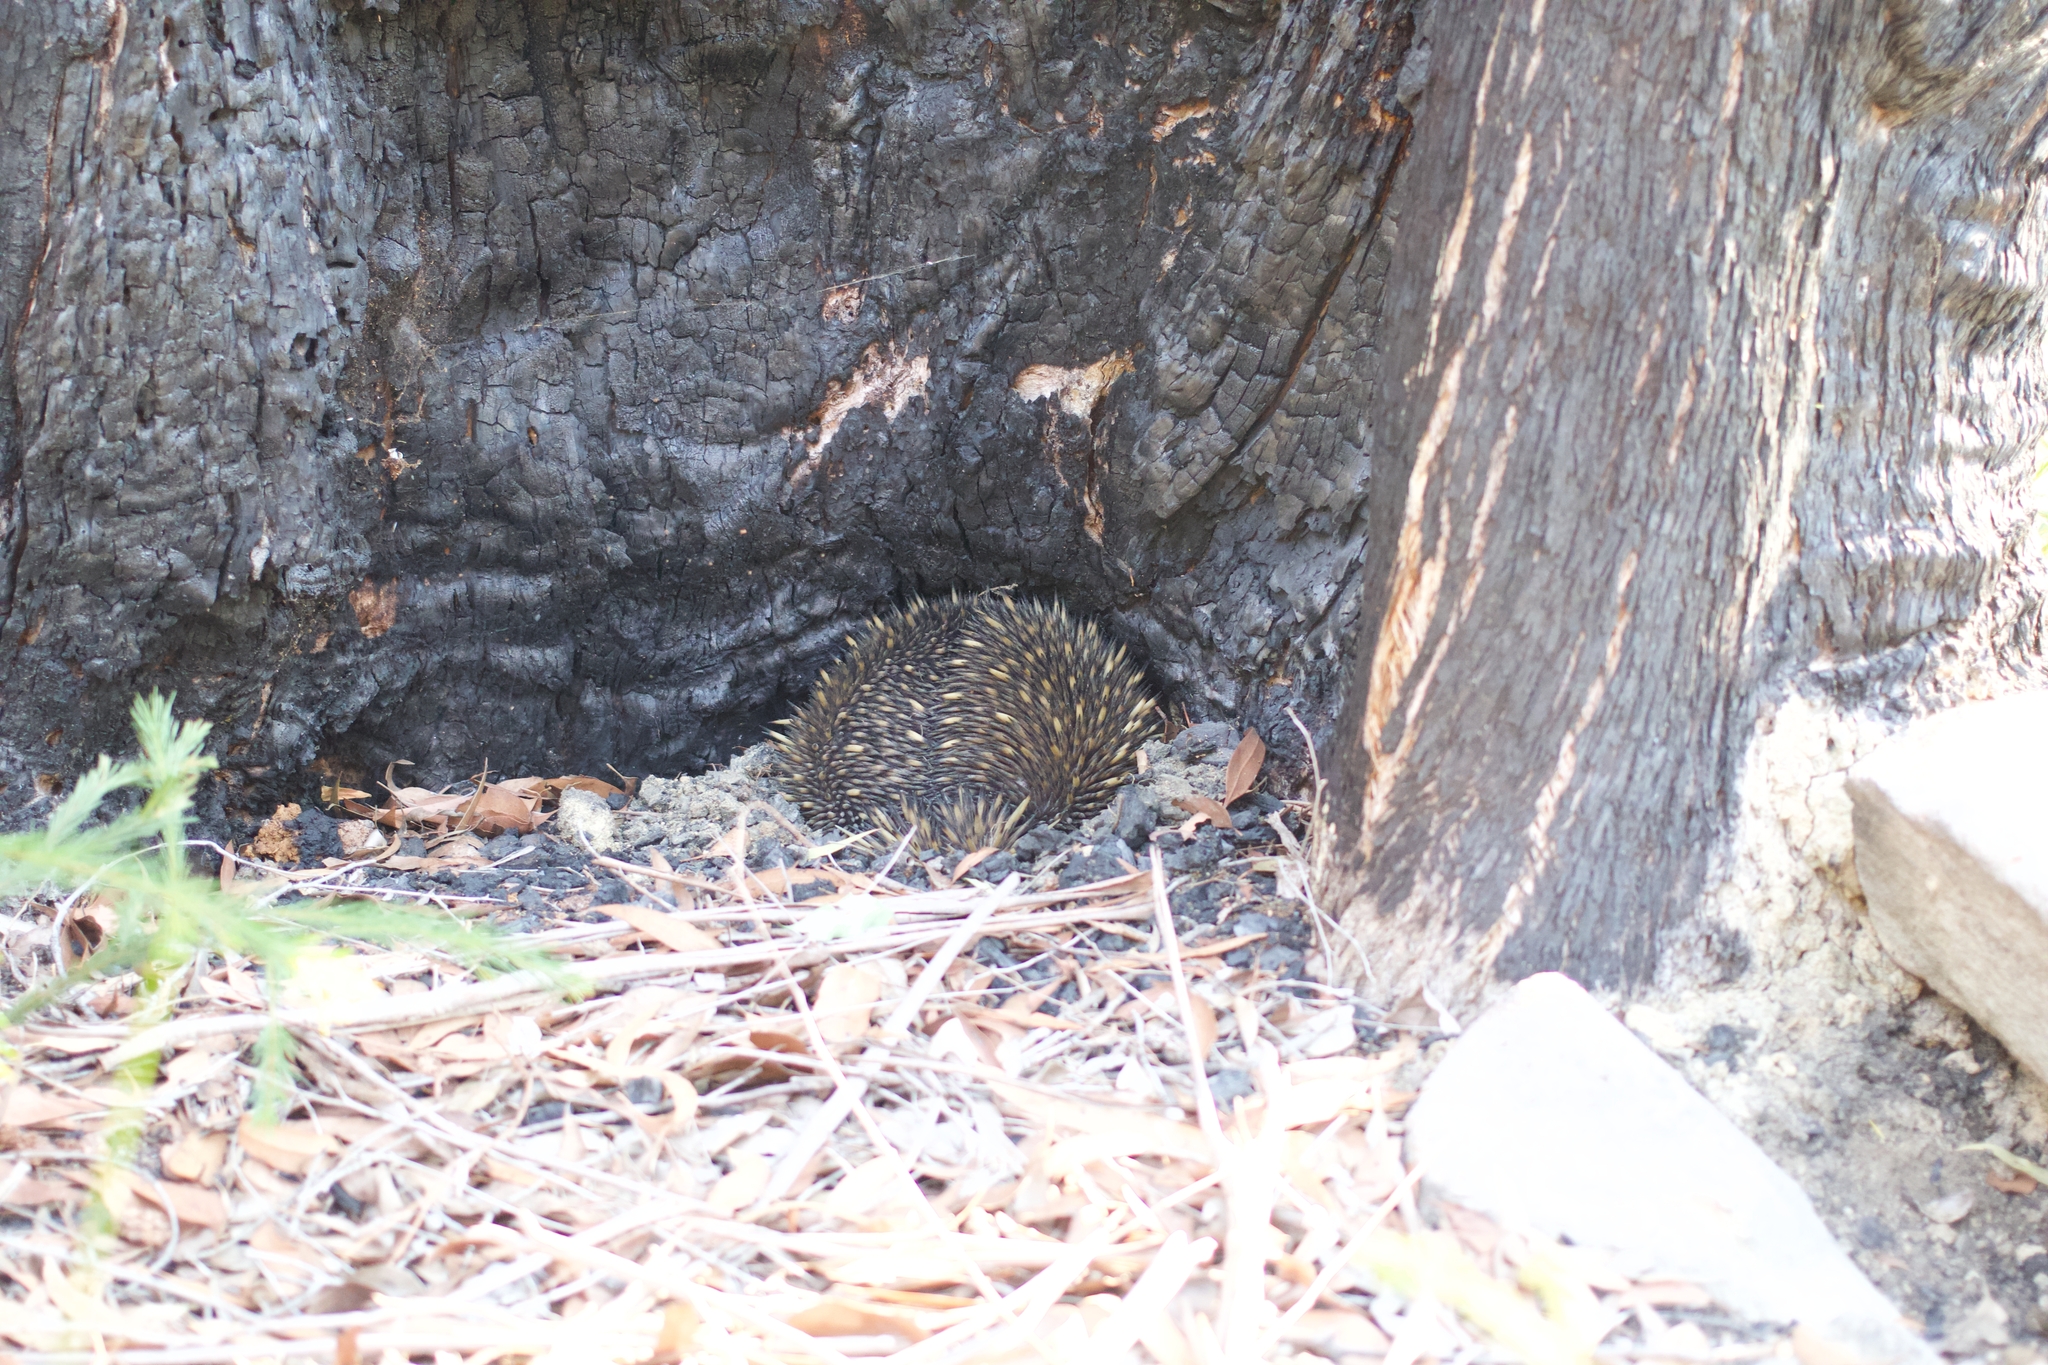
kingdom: Animalia
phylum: Chordata
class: Mammalia
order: Monotremata
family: Tachyglossidae
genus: Tachyglossus
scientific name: Tachyglossus aculeatus
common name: Short-beaked echidna
